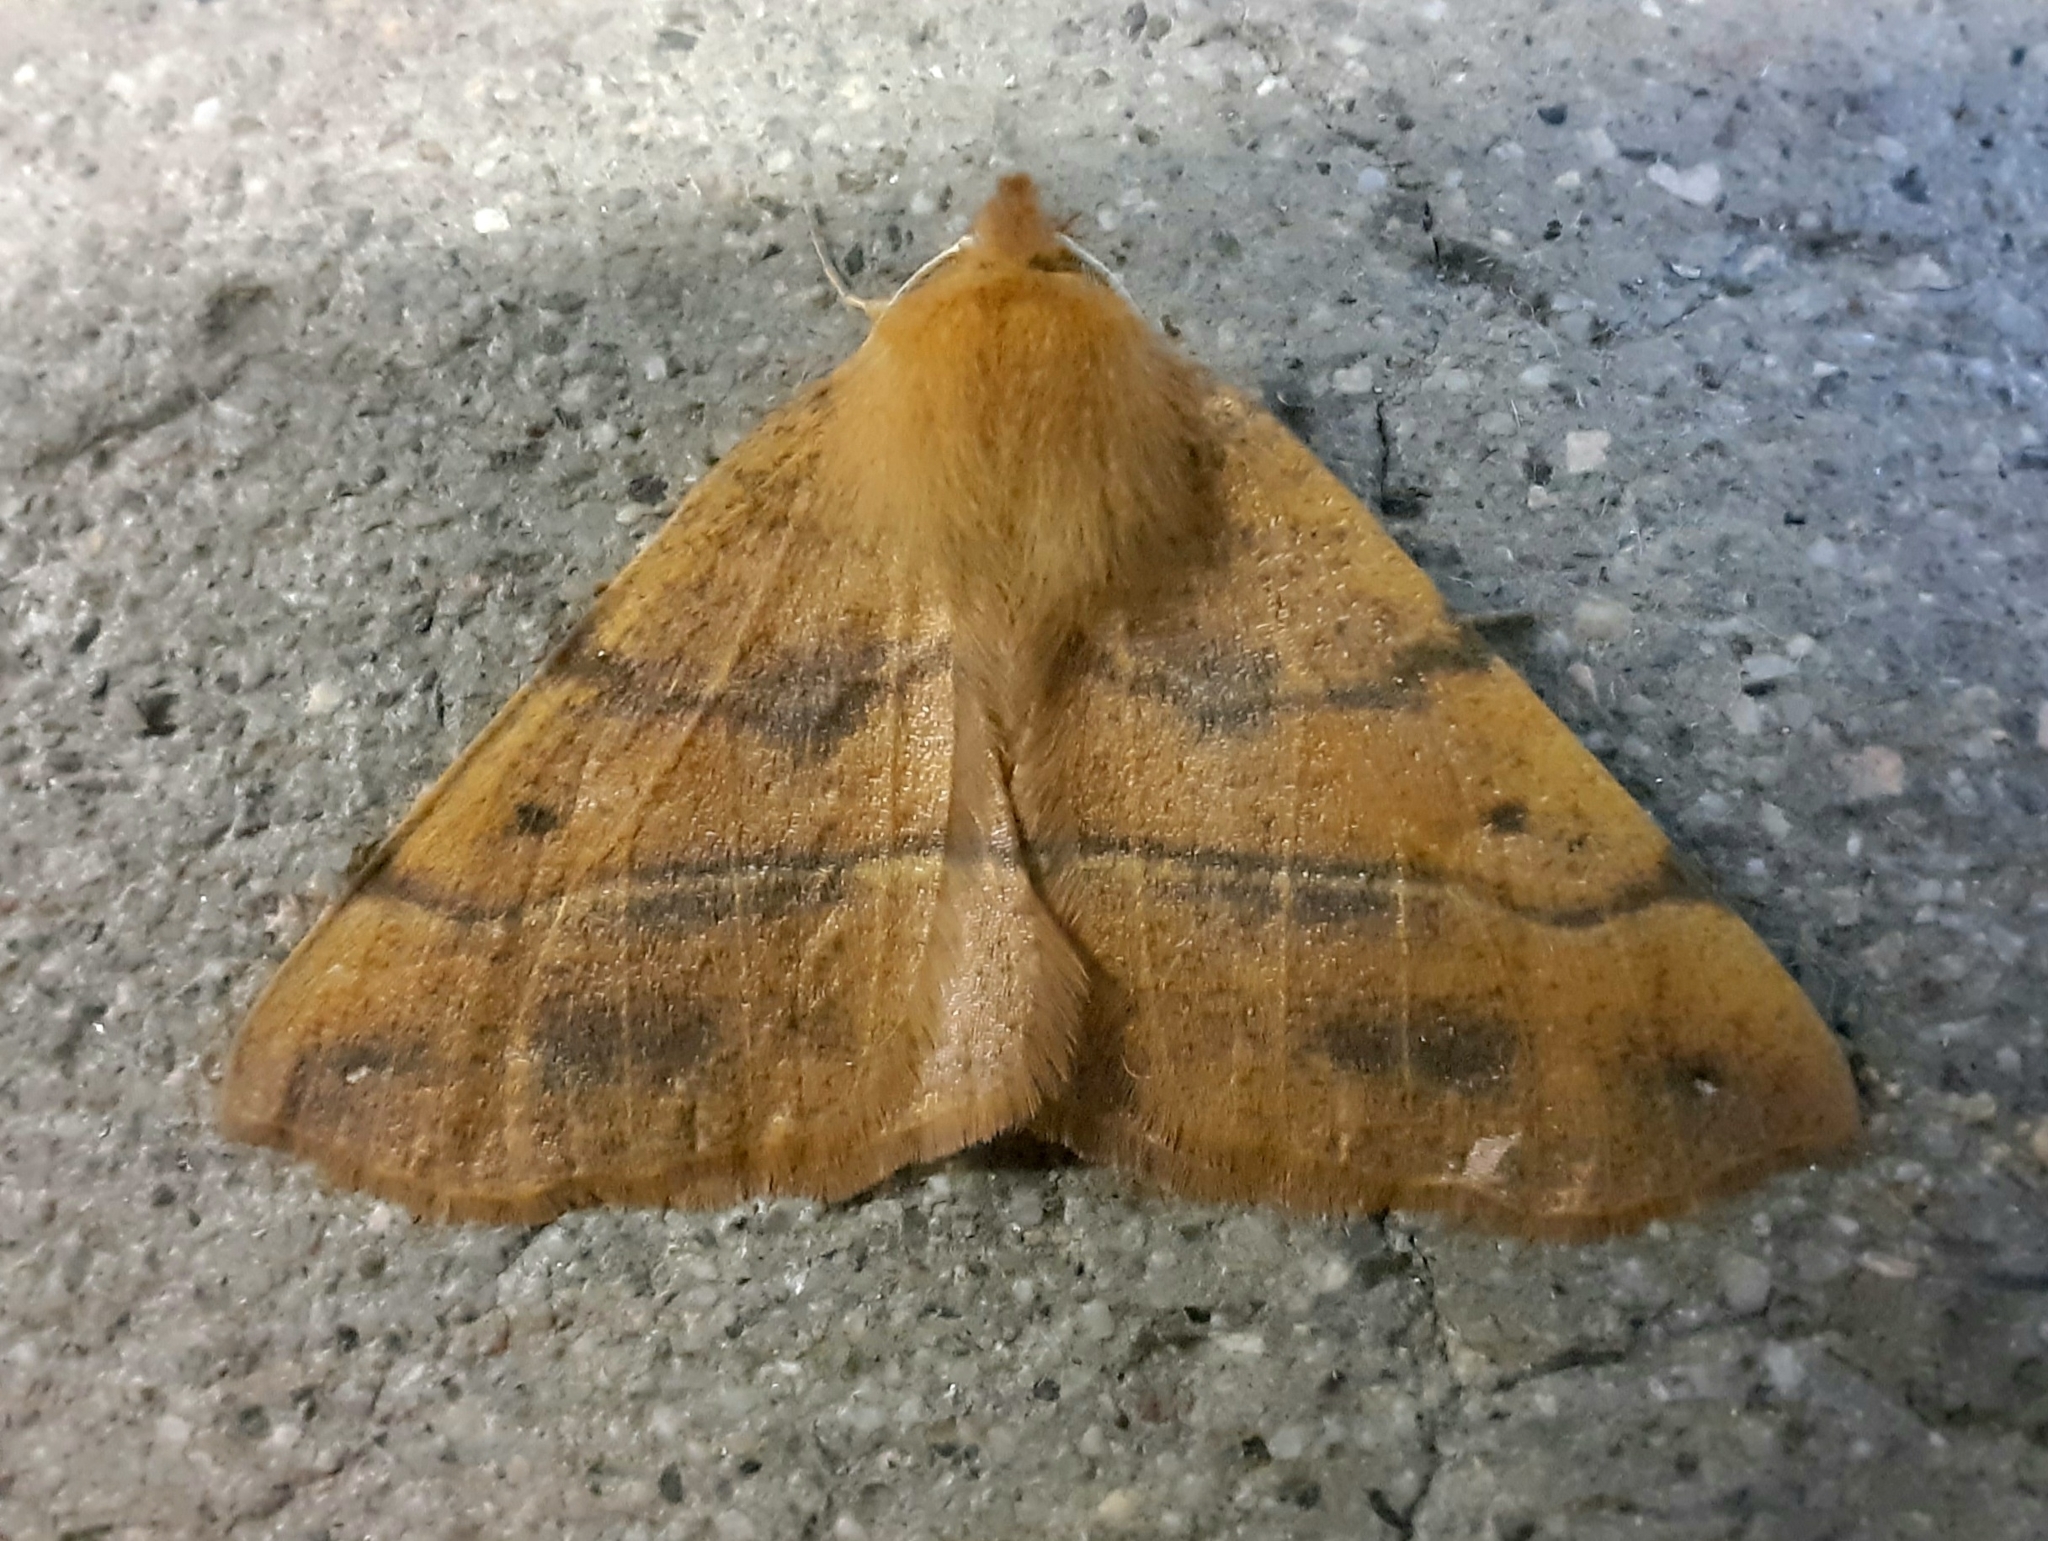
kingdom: Animalia
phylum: Arthropoda
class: Insecta
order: Lepidoptera
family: Geometridae
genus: Colotois
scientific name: Colotois pennaria
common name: Feathered thorn
